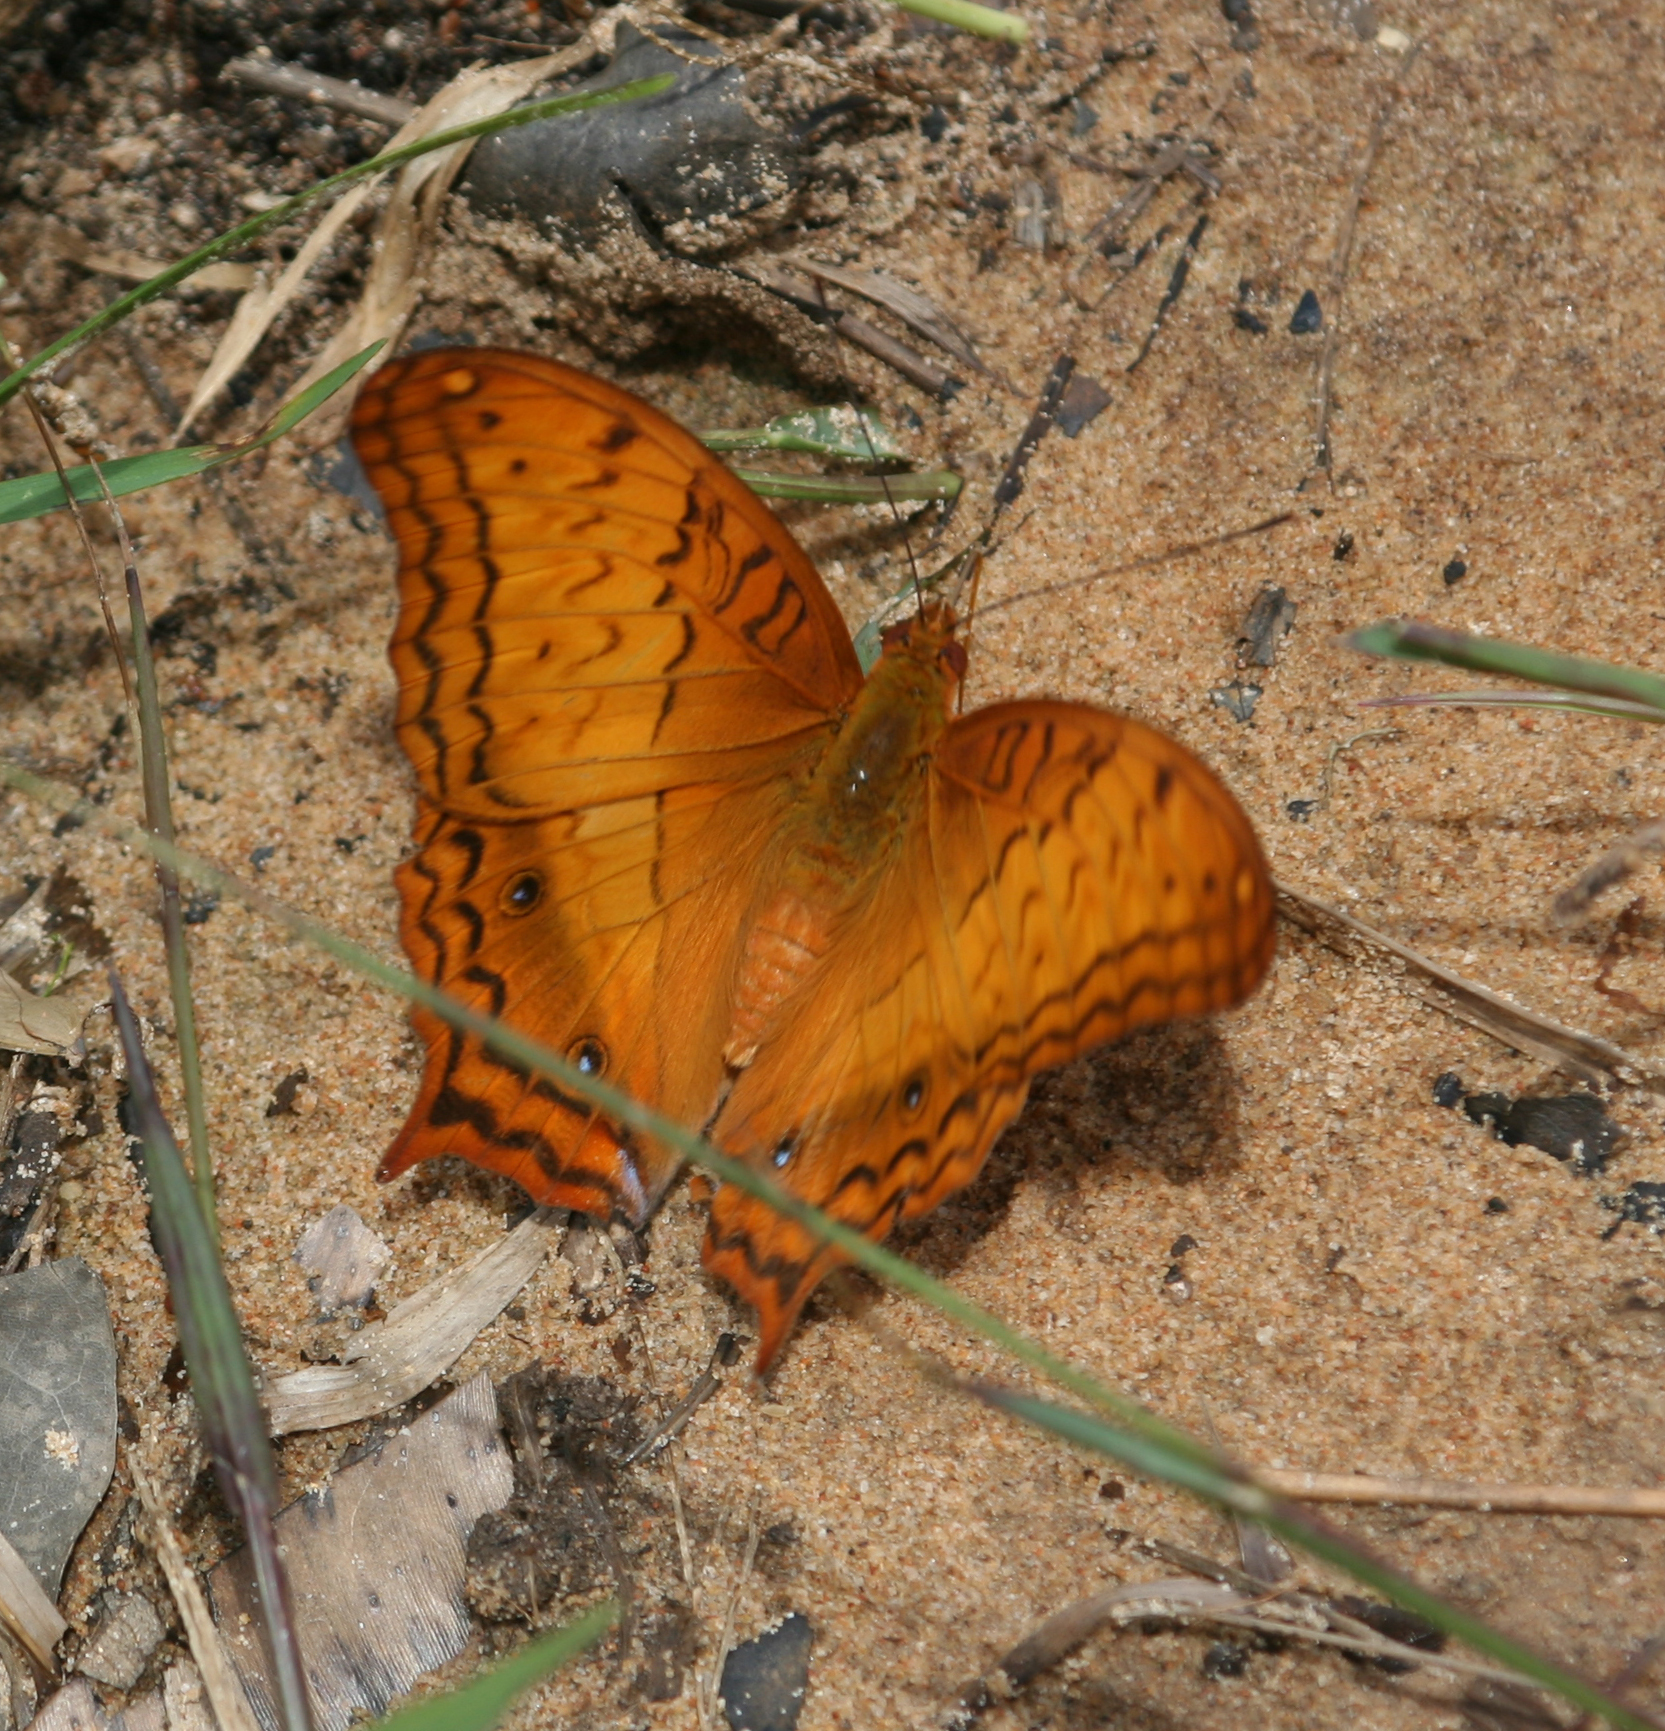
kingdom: Animalia
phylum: Arthropoda
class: Insecta
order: Lepidoptera
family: Nymphalidae
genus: Vindula
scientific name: Vindula erota
